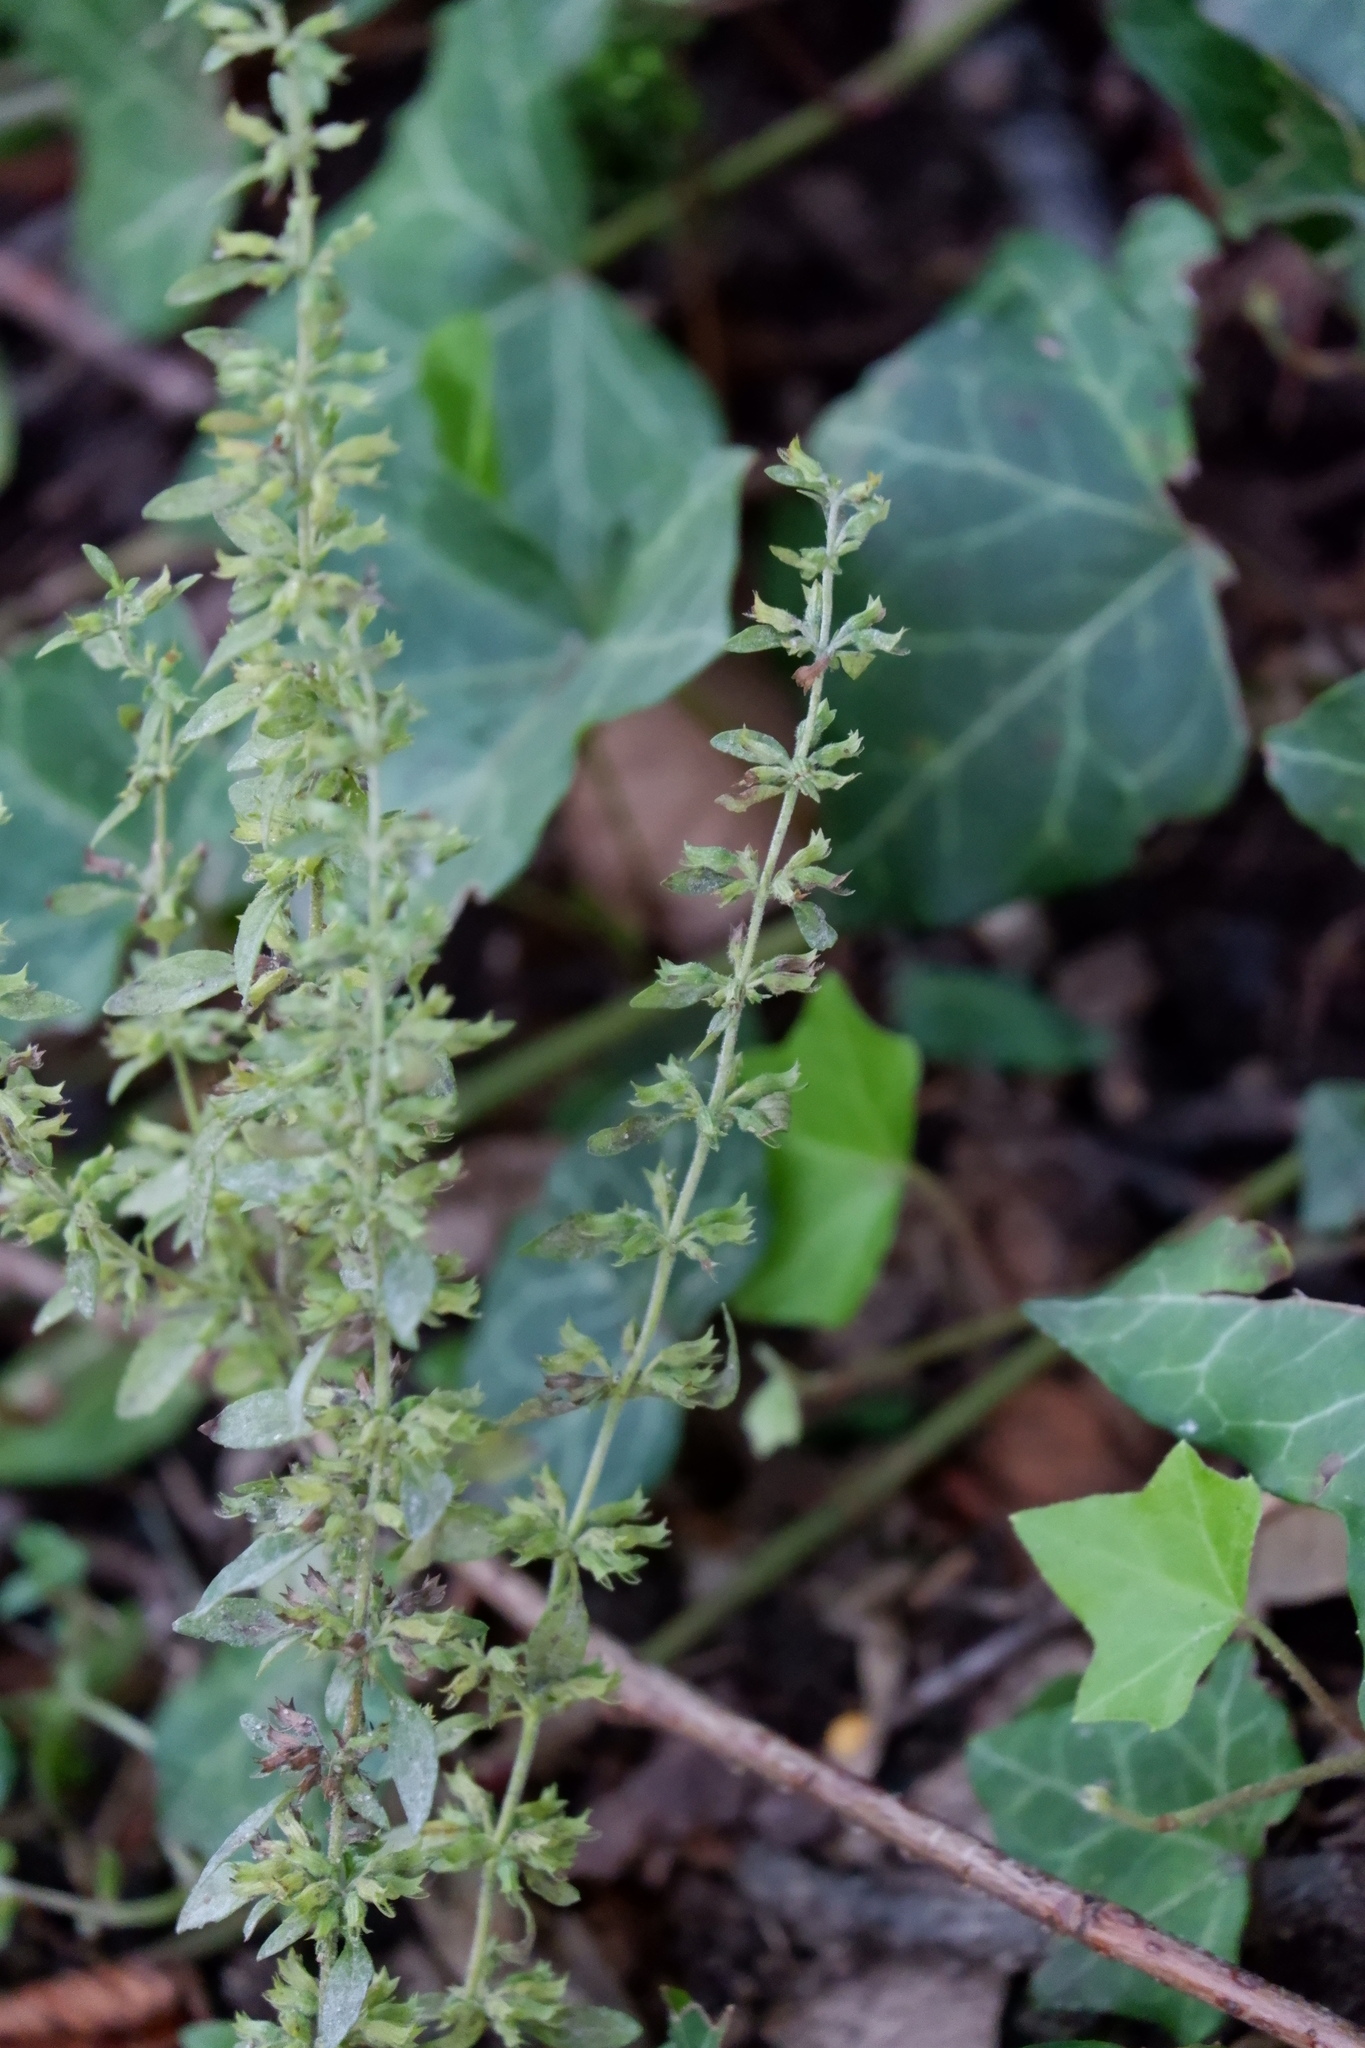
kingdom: Plantae
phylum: Tracheophyta
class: Magnoliopsida
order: Lamiales
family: Lamiaceae
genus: Hedeoma
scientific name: Hedeoma pulegioides
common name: American false pennyroyal
